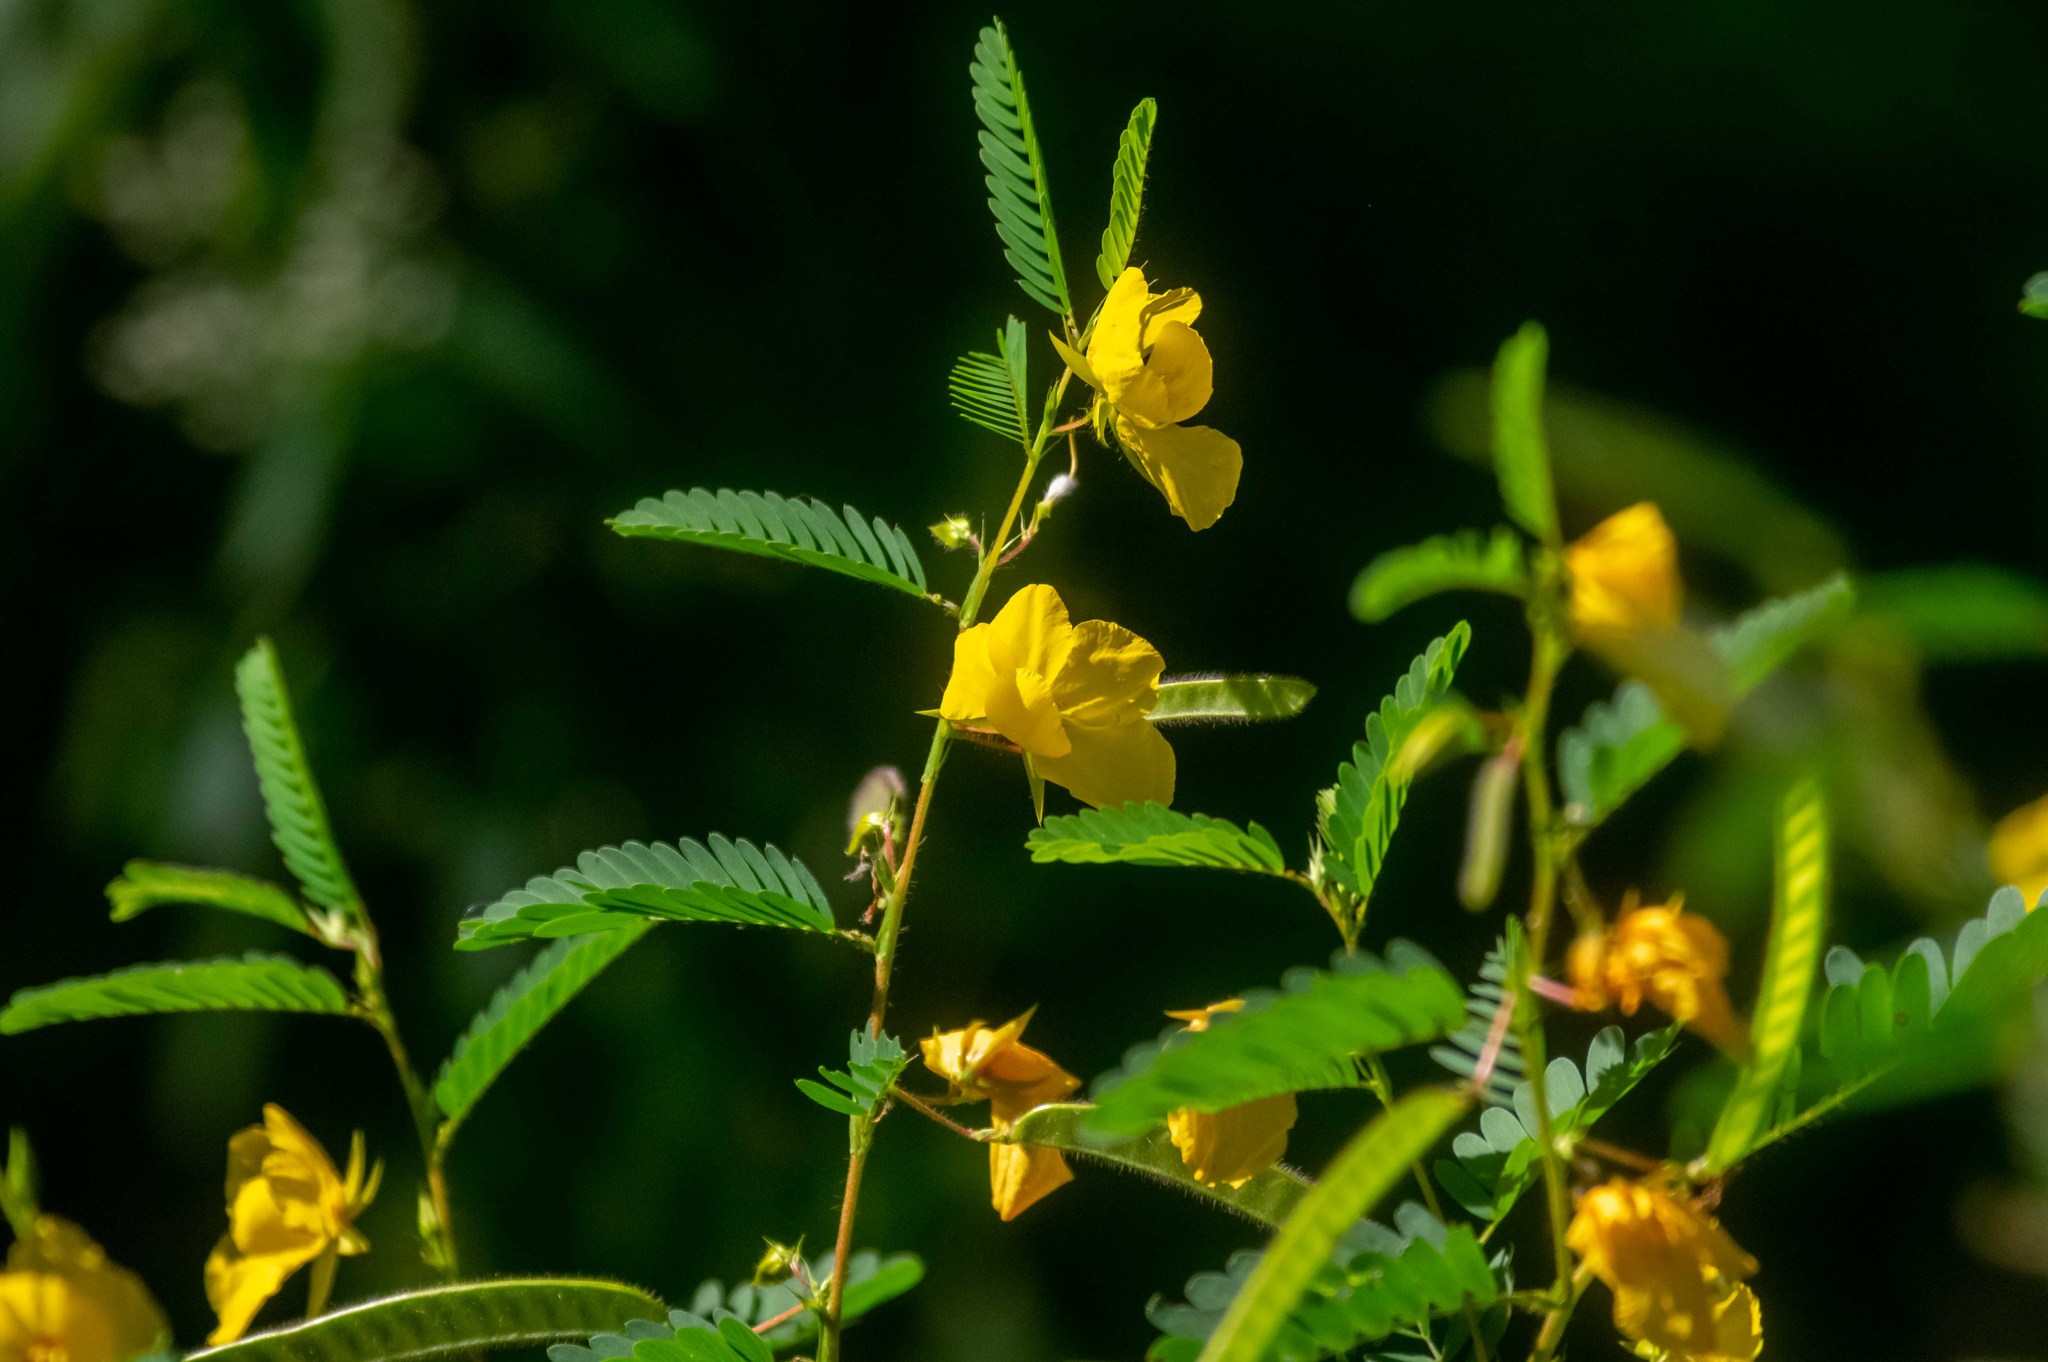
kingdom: Plantae
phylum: Tracheophyta
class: Magnoliopsida
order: Fabales
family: Fabaceae
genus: Chamaecrista
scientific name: Chamaecrista fasciculata
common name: Golden cassia
